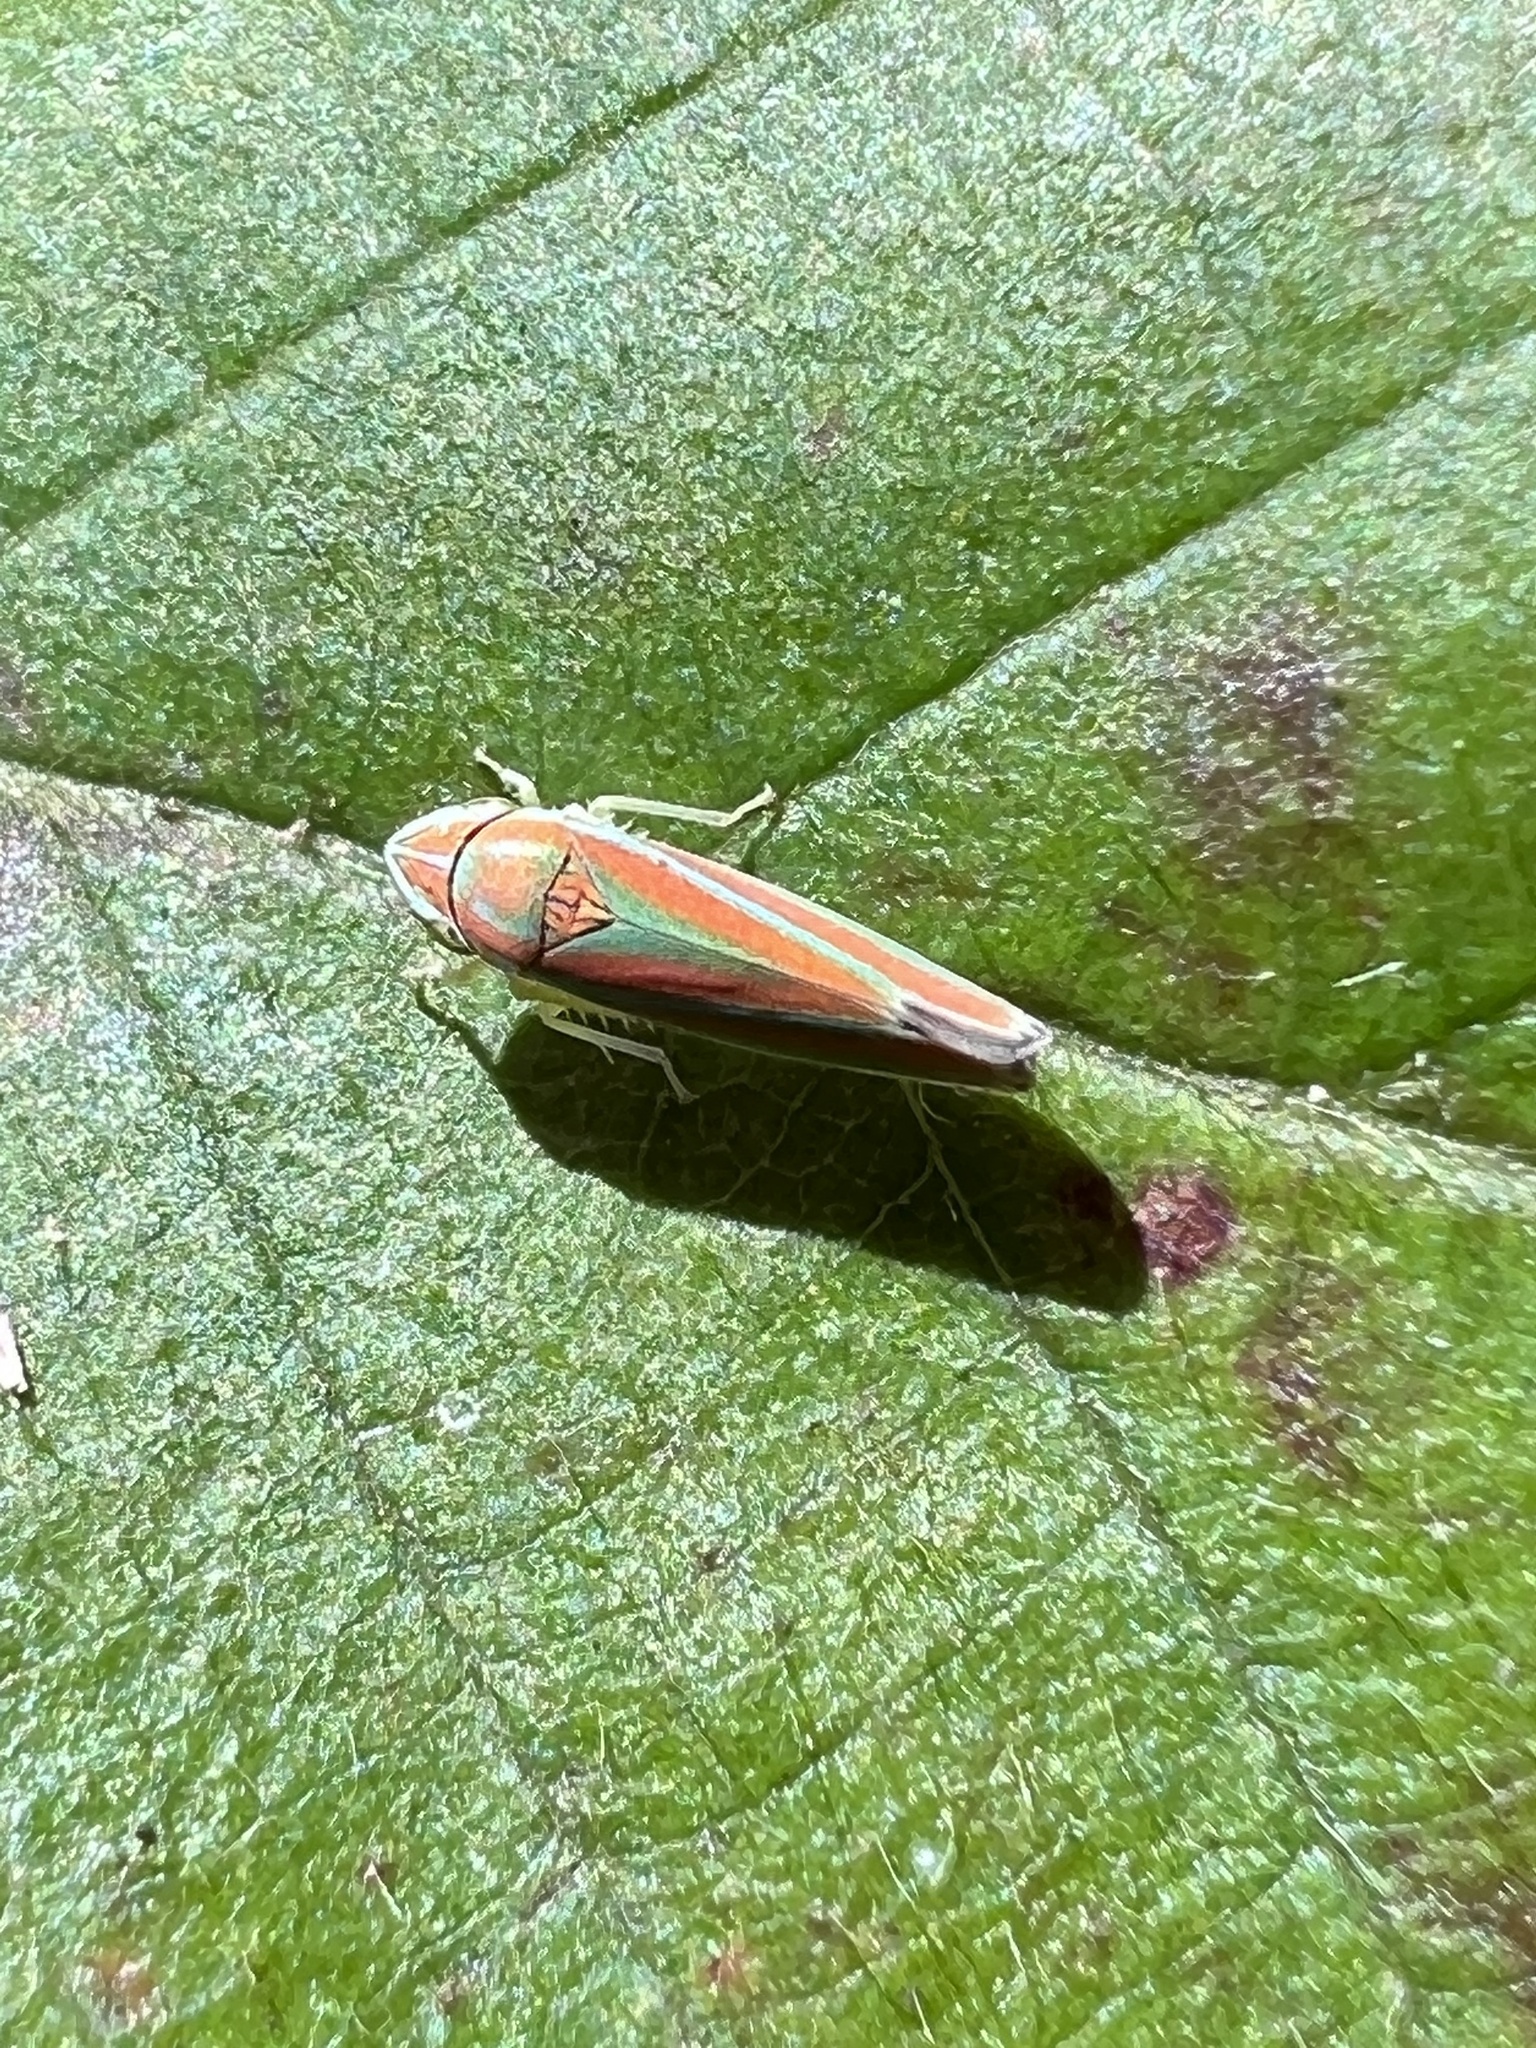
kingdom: Animalia
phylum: Arthropoda
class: Insecta
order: Hemiptera
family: Cicadellidae
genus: Graphocephala
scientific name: Graphocephala versuta
